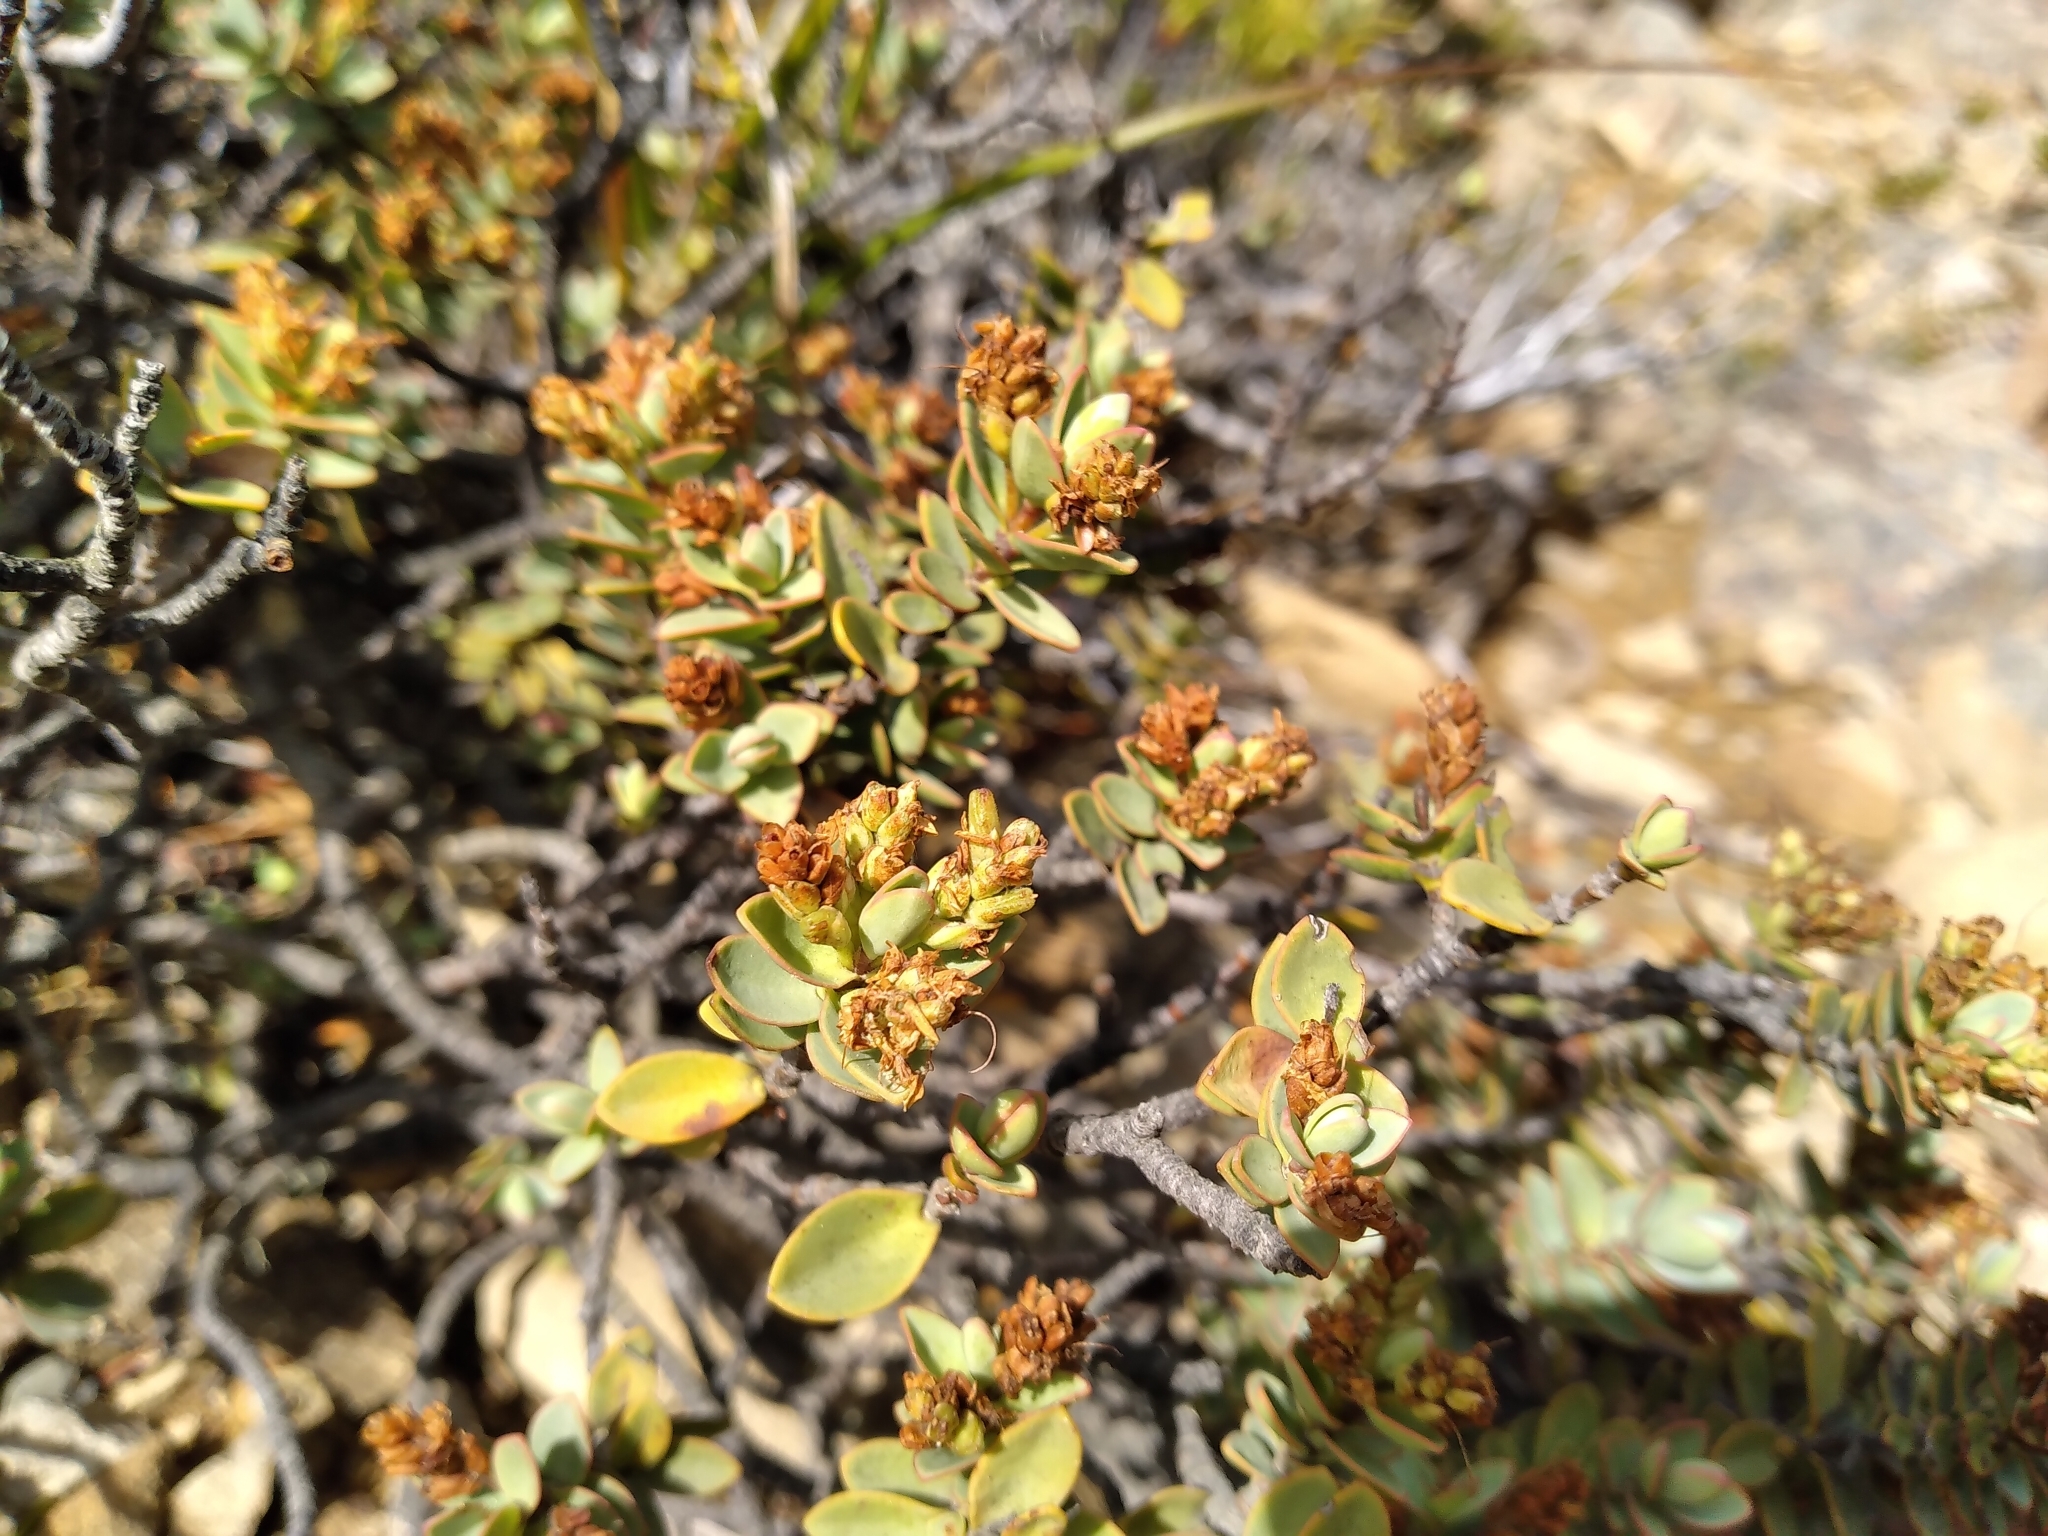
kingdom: Plantae
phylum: Tracheophyta
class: Magnoliopsida
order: Lamiales
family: Plantaginaceae
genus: Veronica
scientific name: Veronica pinguifolia
